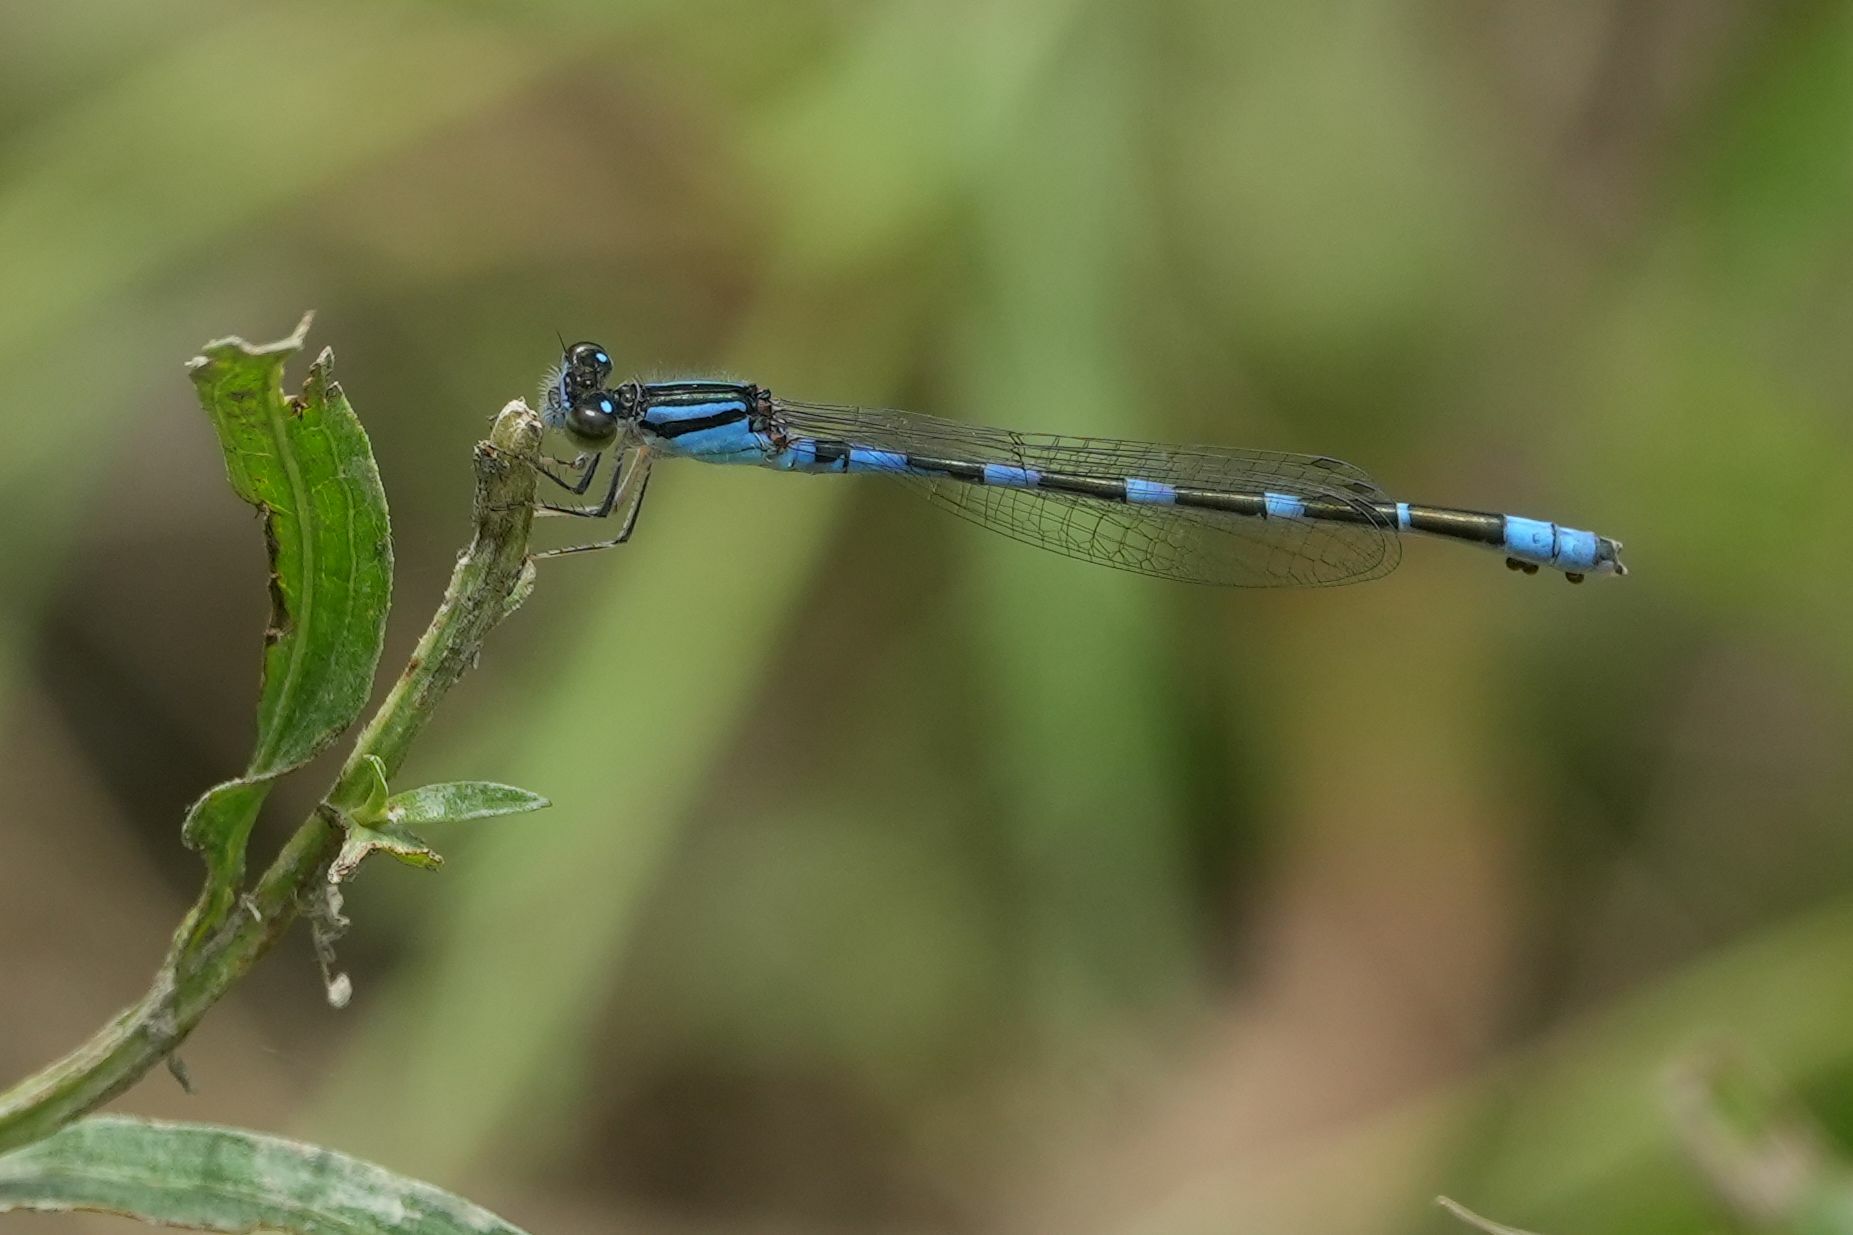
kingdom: Animalia
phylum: Arthropoda
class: Insecta
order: Odonata
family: Coenagrionidae
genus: Enallagma
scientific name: Enallagma carunculatum
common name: Tule bluet
